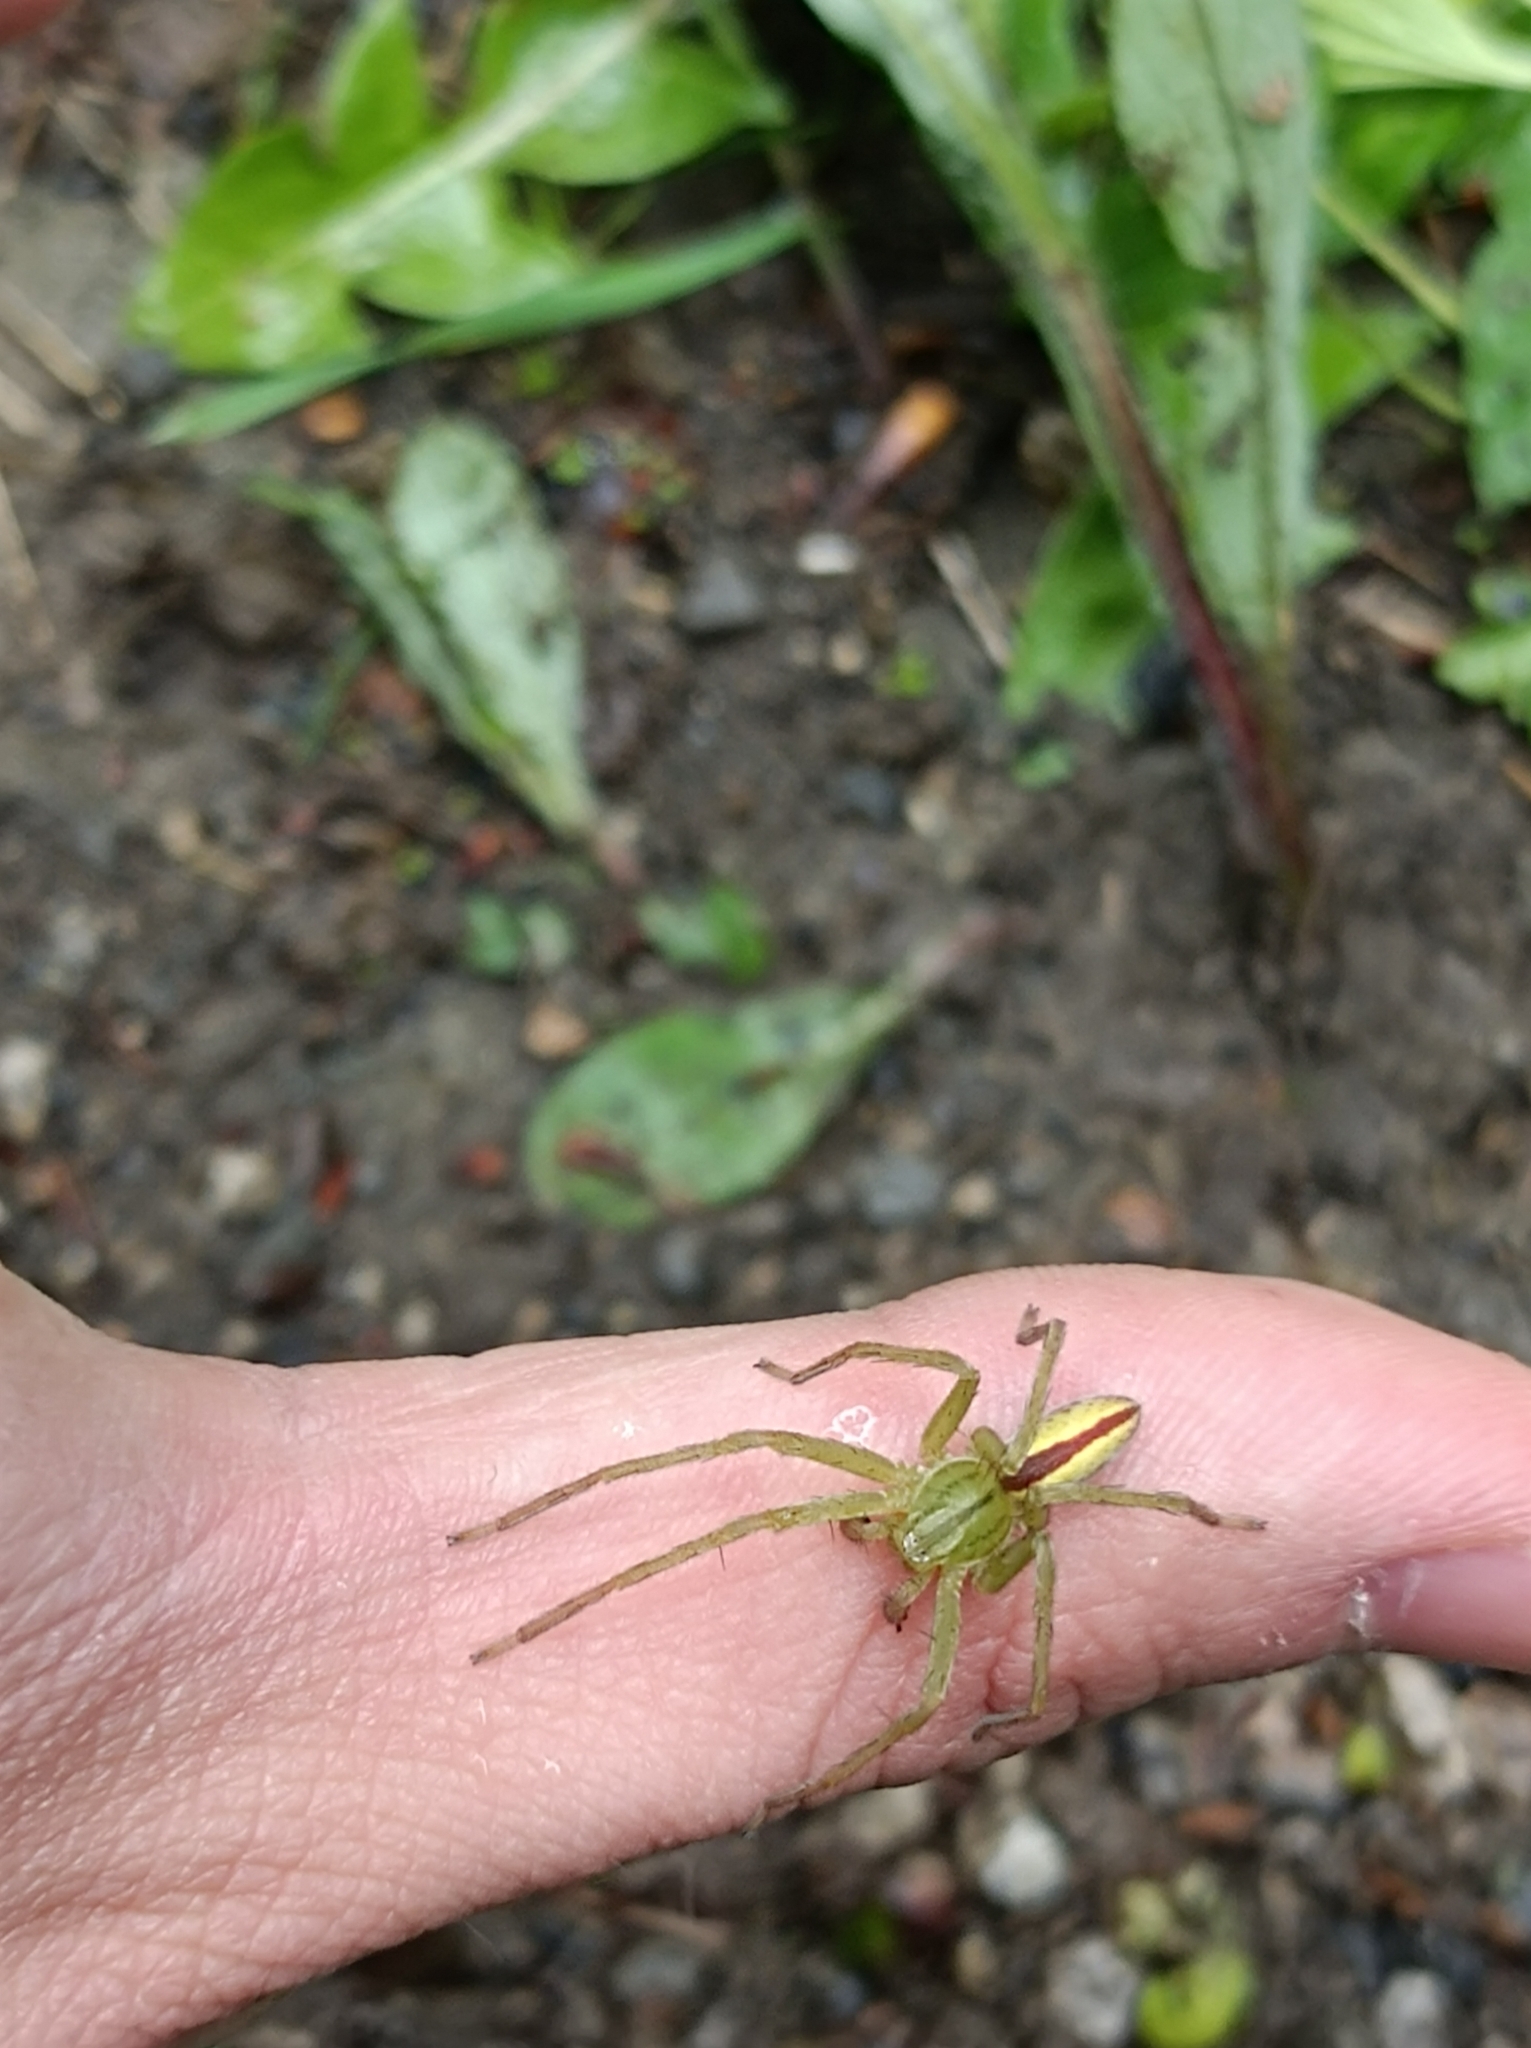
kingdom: Animalia
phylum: Arthropoda
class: Arachnida
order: Araneae
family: Sparassidae
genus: Micrommata
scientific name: Micrommata virescens
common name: Green spider
